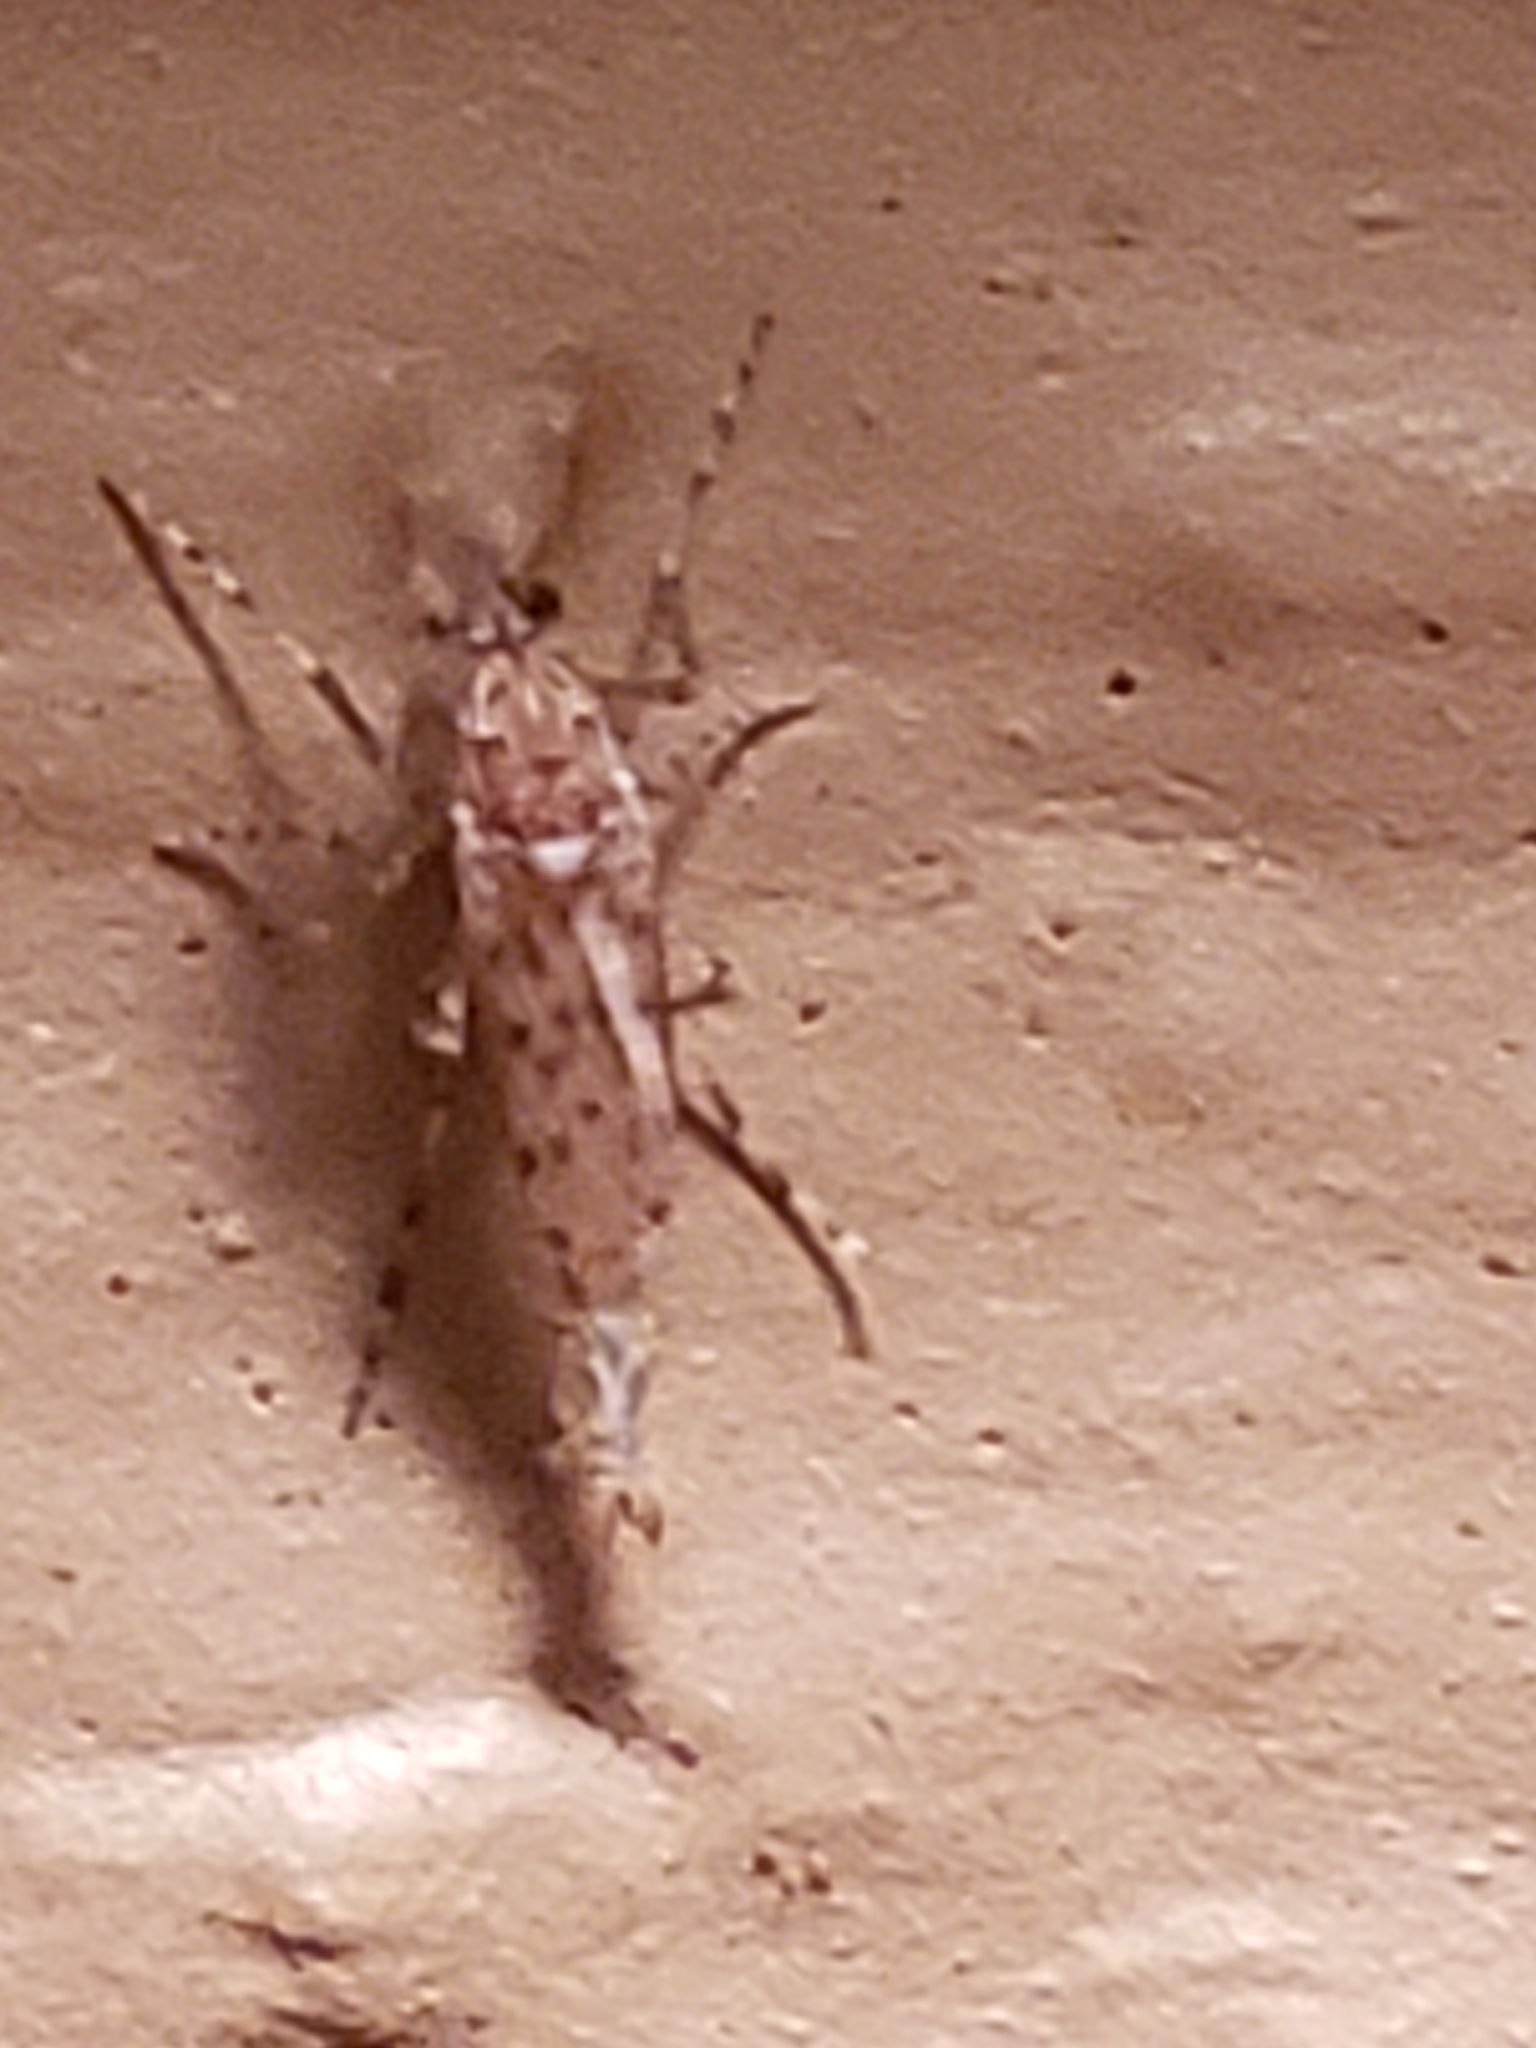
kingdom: Animalia
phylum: Arthropoda
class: Insecta
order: Diptera
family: Chaoboridae
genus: Chaoborus
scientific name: Chaoborus punctipennis
